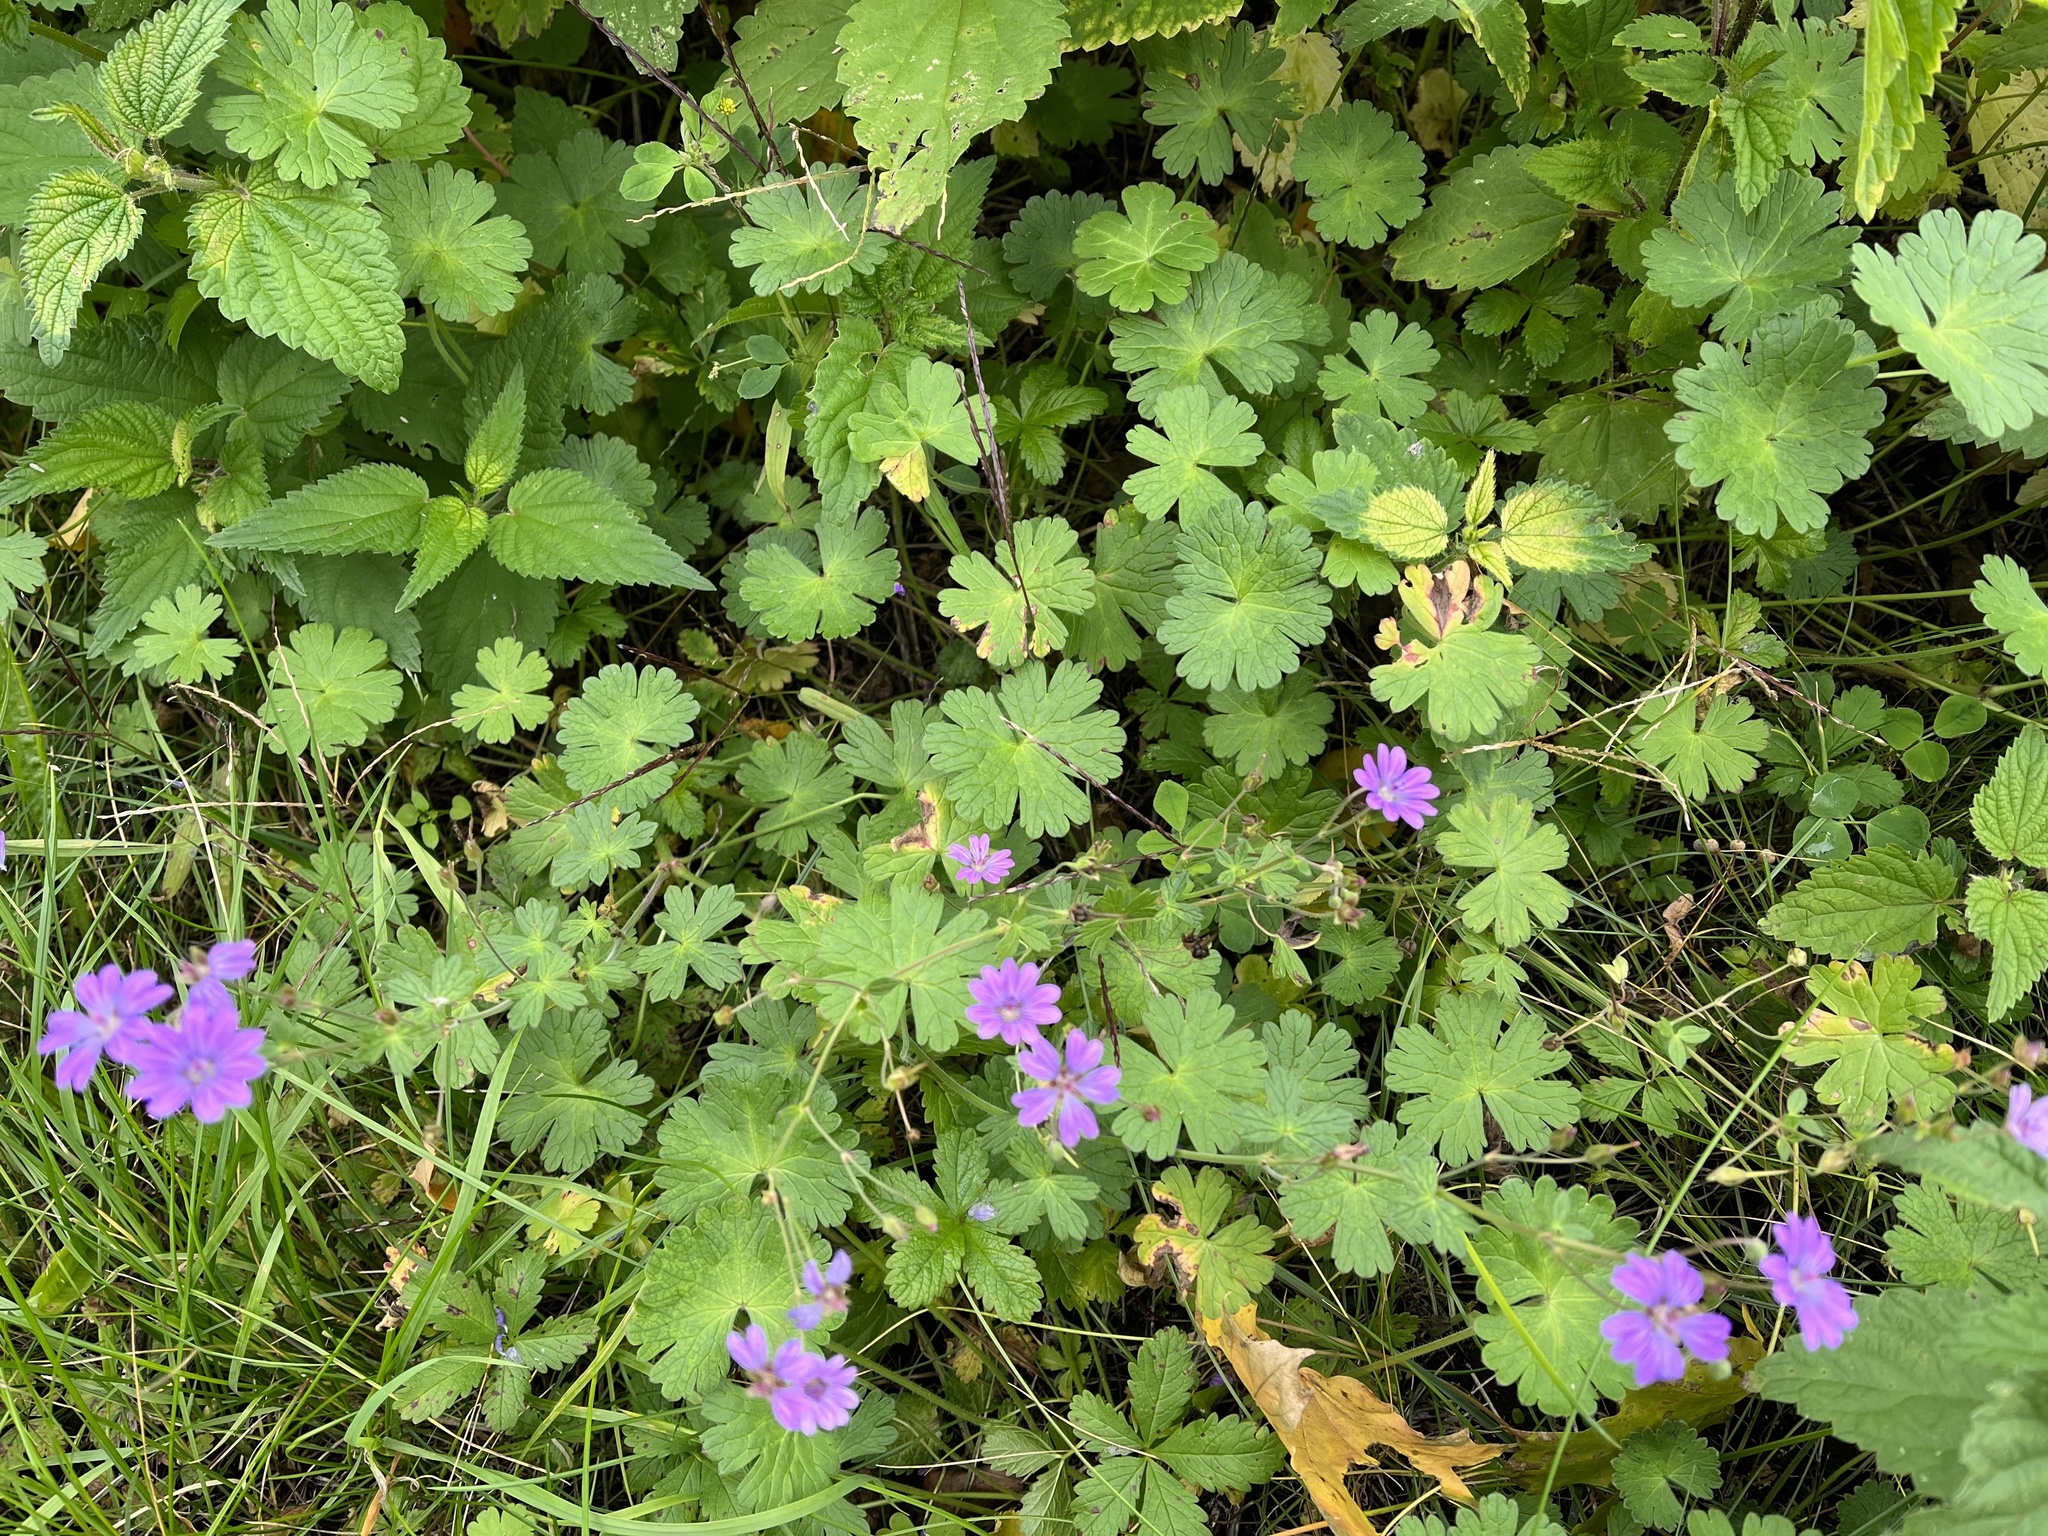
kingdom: Plantae
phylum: Tracheophyta
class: Magnoliopsida
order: Geraniales
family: Geraniaceae
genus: Geranium
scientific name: Geranium pyrenaicum
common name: Hedgerow crane's-bill
